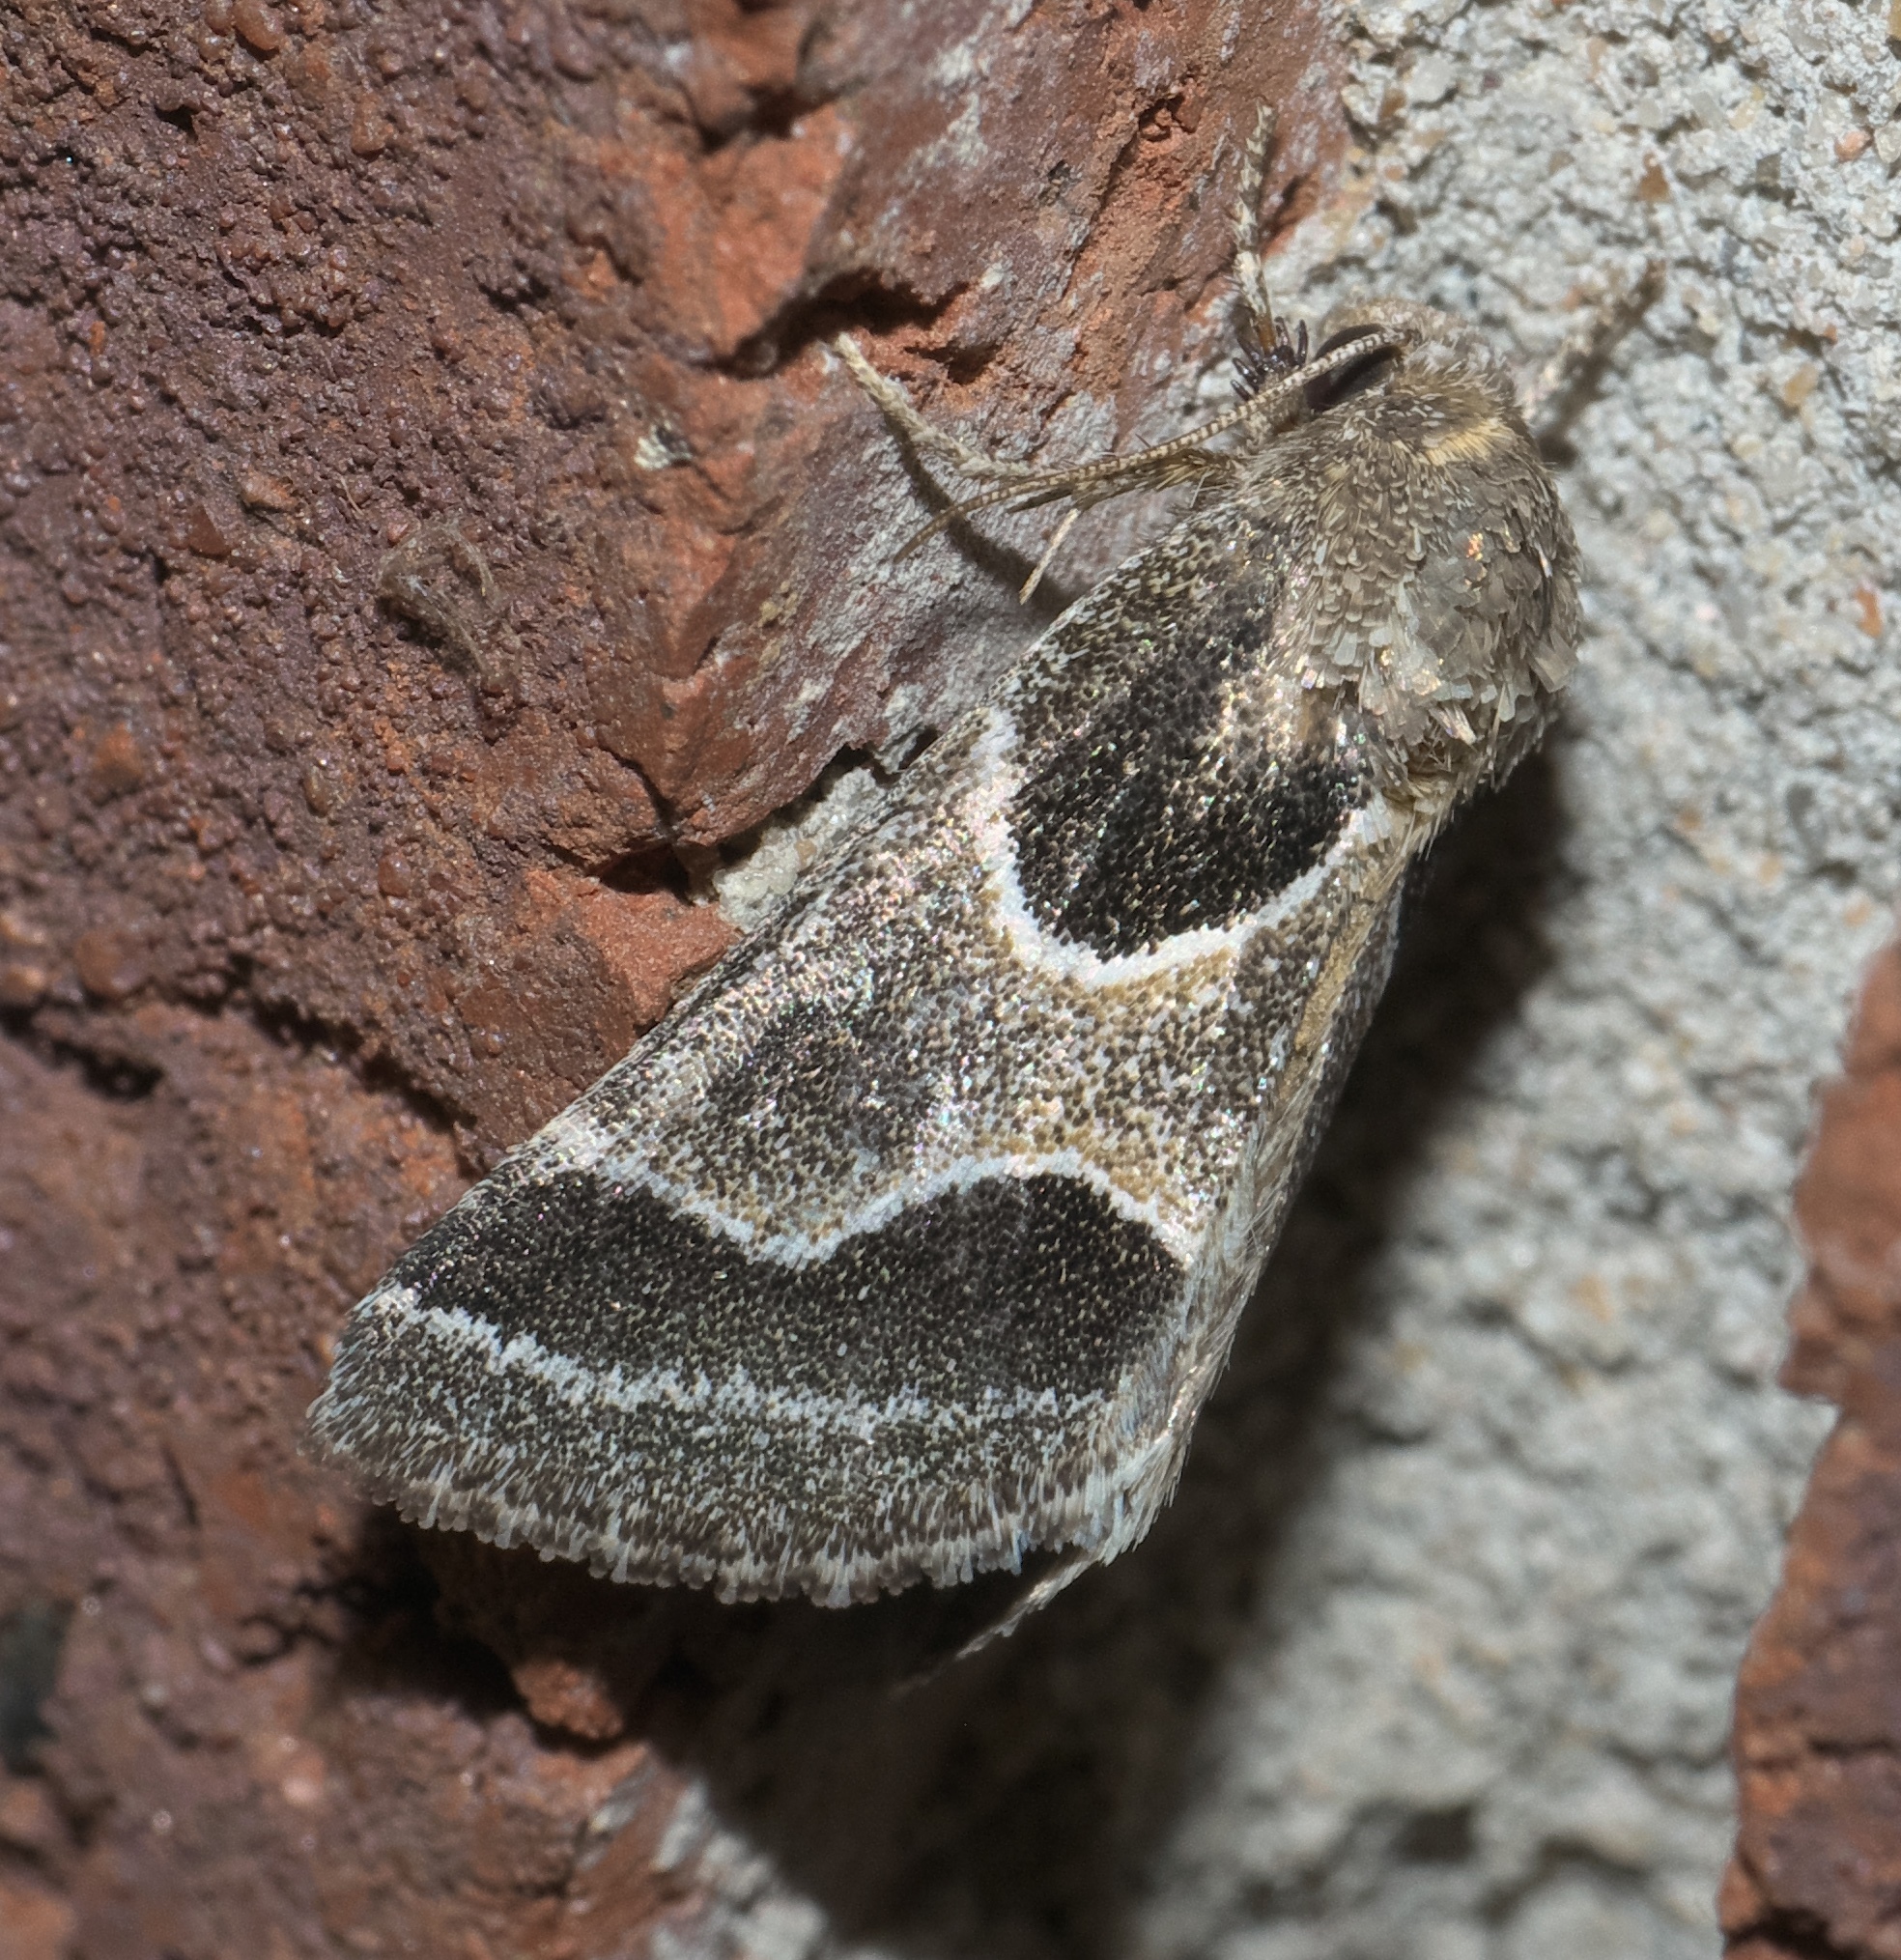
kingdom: Animalia
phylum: Arthropoda
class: Insecta
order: Lepidoptera
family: Noctuidae
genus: Schinia
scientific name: Schinia rivulosa
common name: Scarce meal-moth
